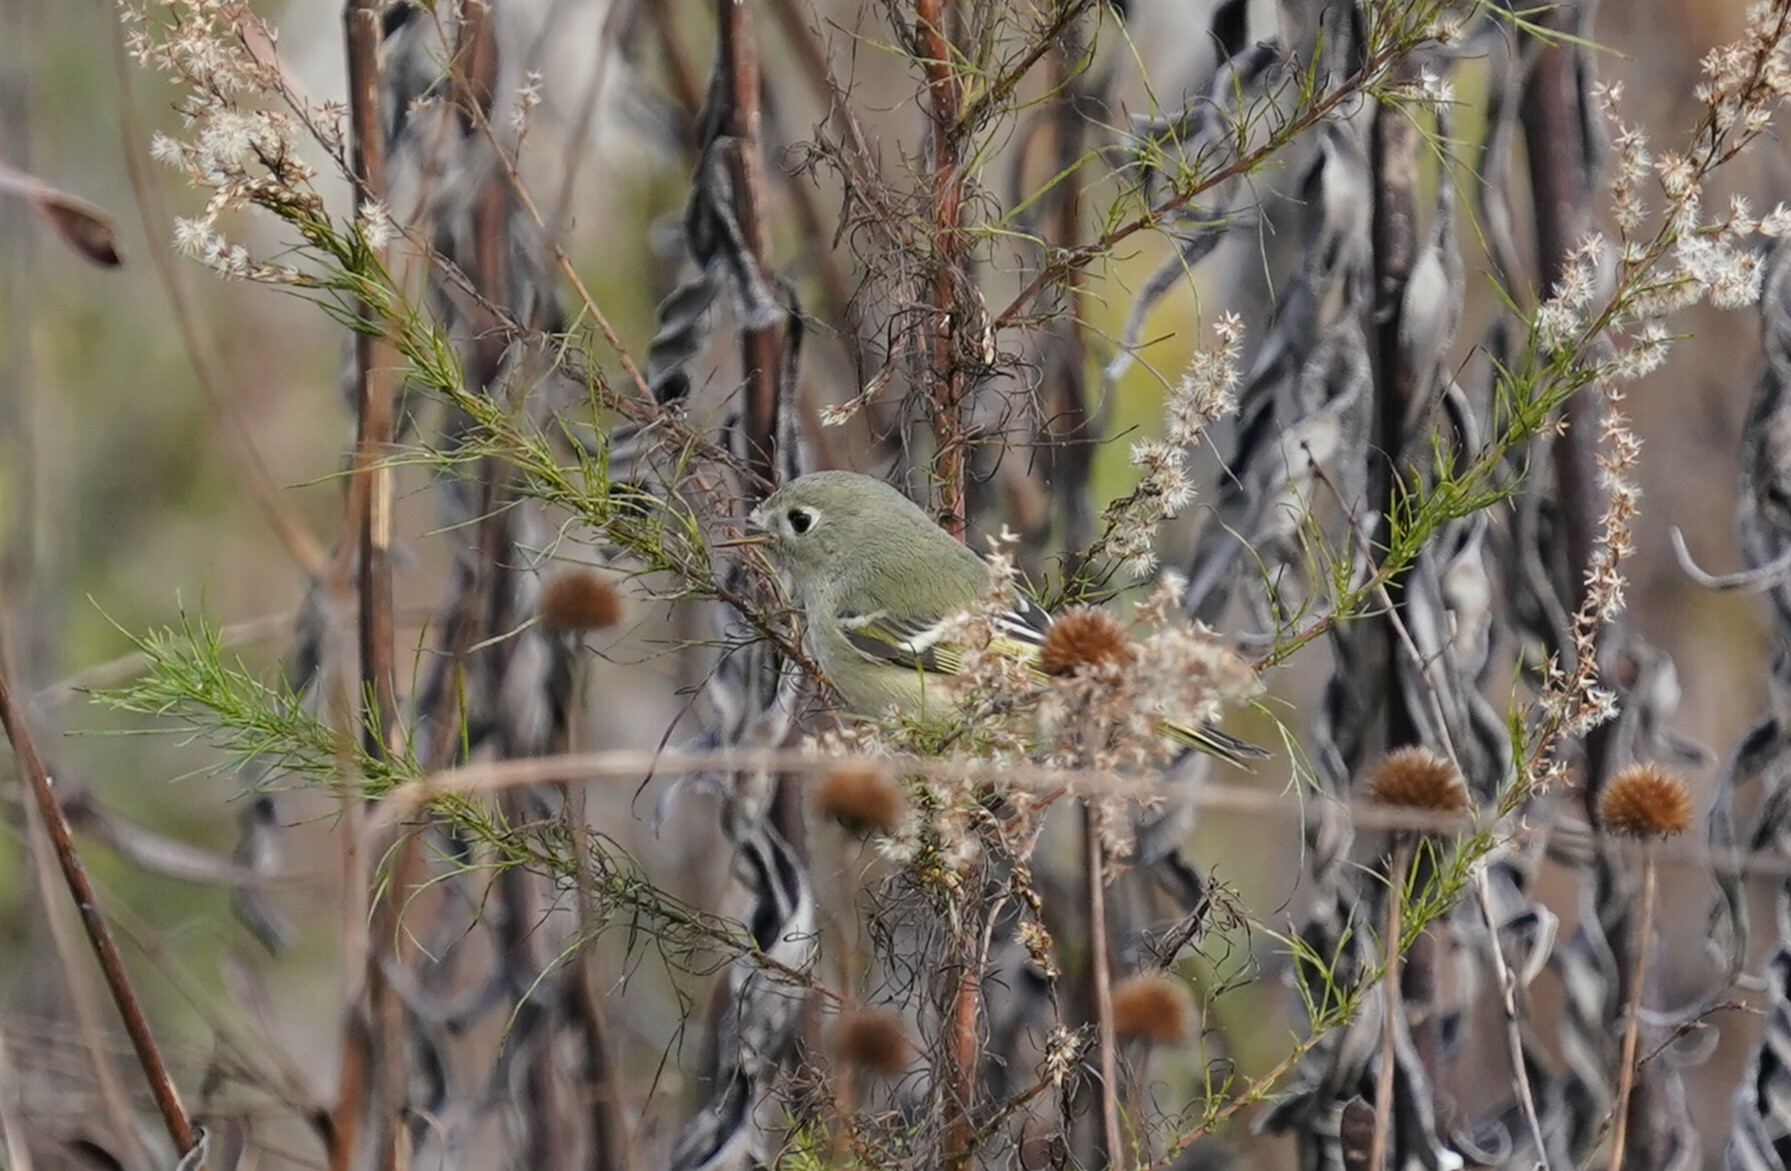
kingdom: Animalia
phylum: Chordata
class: Aves
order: Passeriformes
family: Regulidae
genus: Regulus
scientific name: Regulus calendula
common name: Ruby-crowned kinglet
